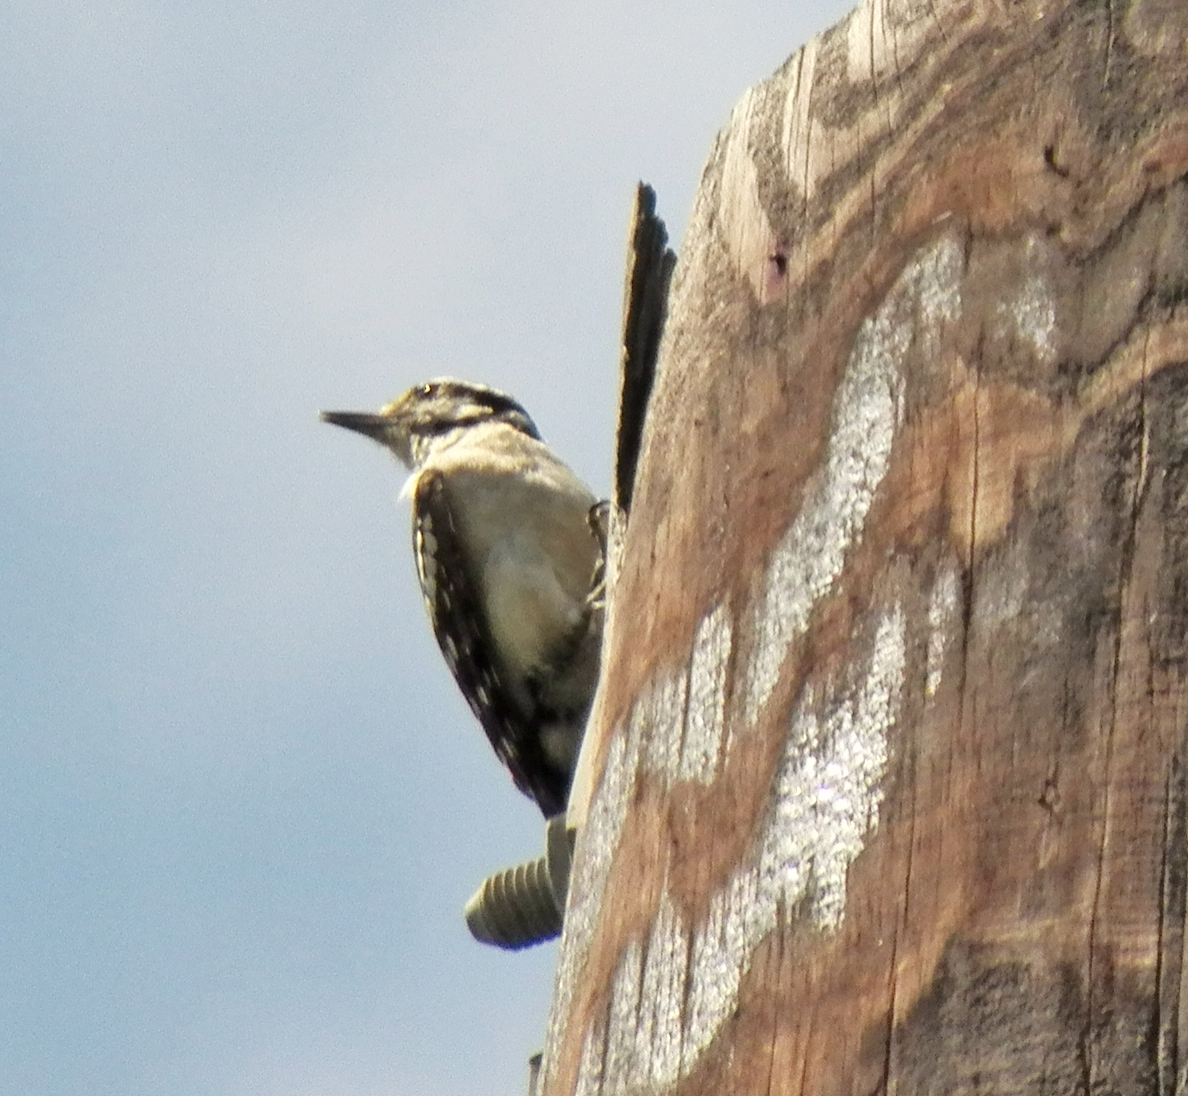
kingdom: Animalia
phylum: Chordata
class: Aves
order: Piciformes
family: Picidae
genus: Dryobates
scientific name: Dryobates pubescens
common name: Downy woodpecker
